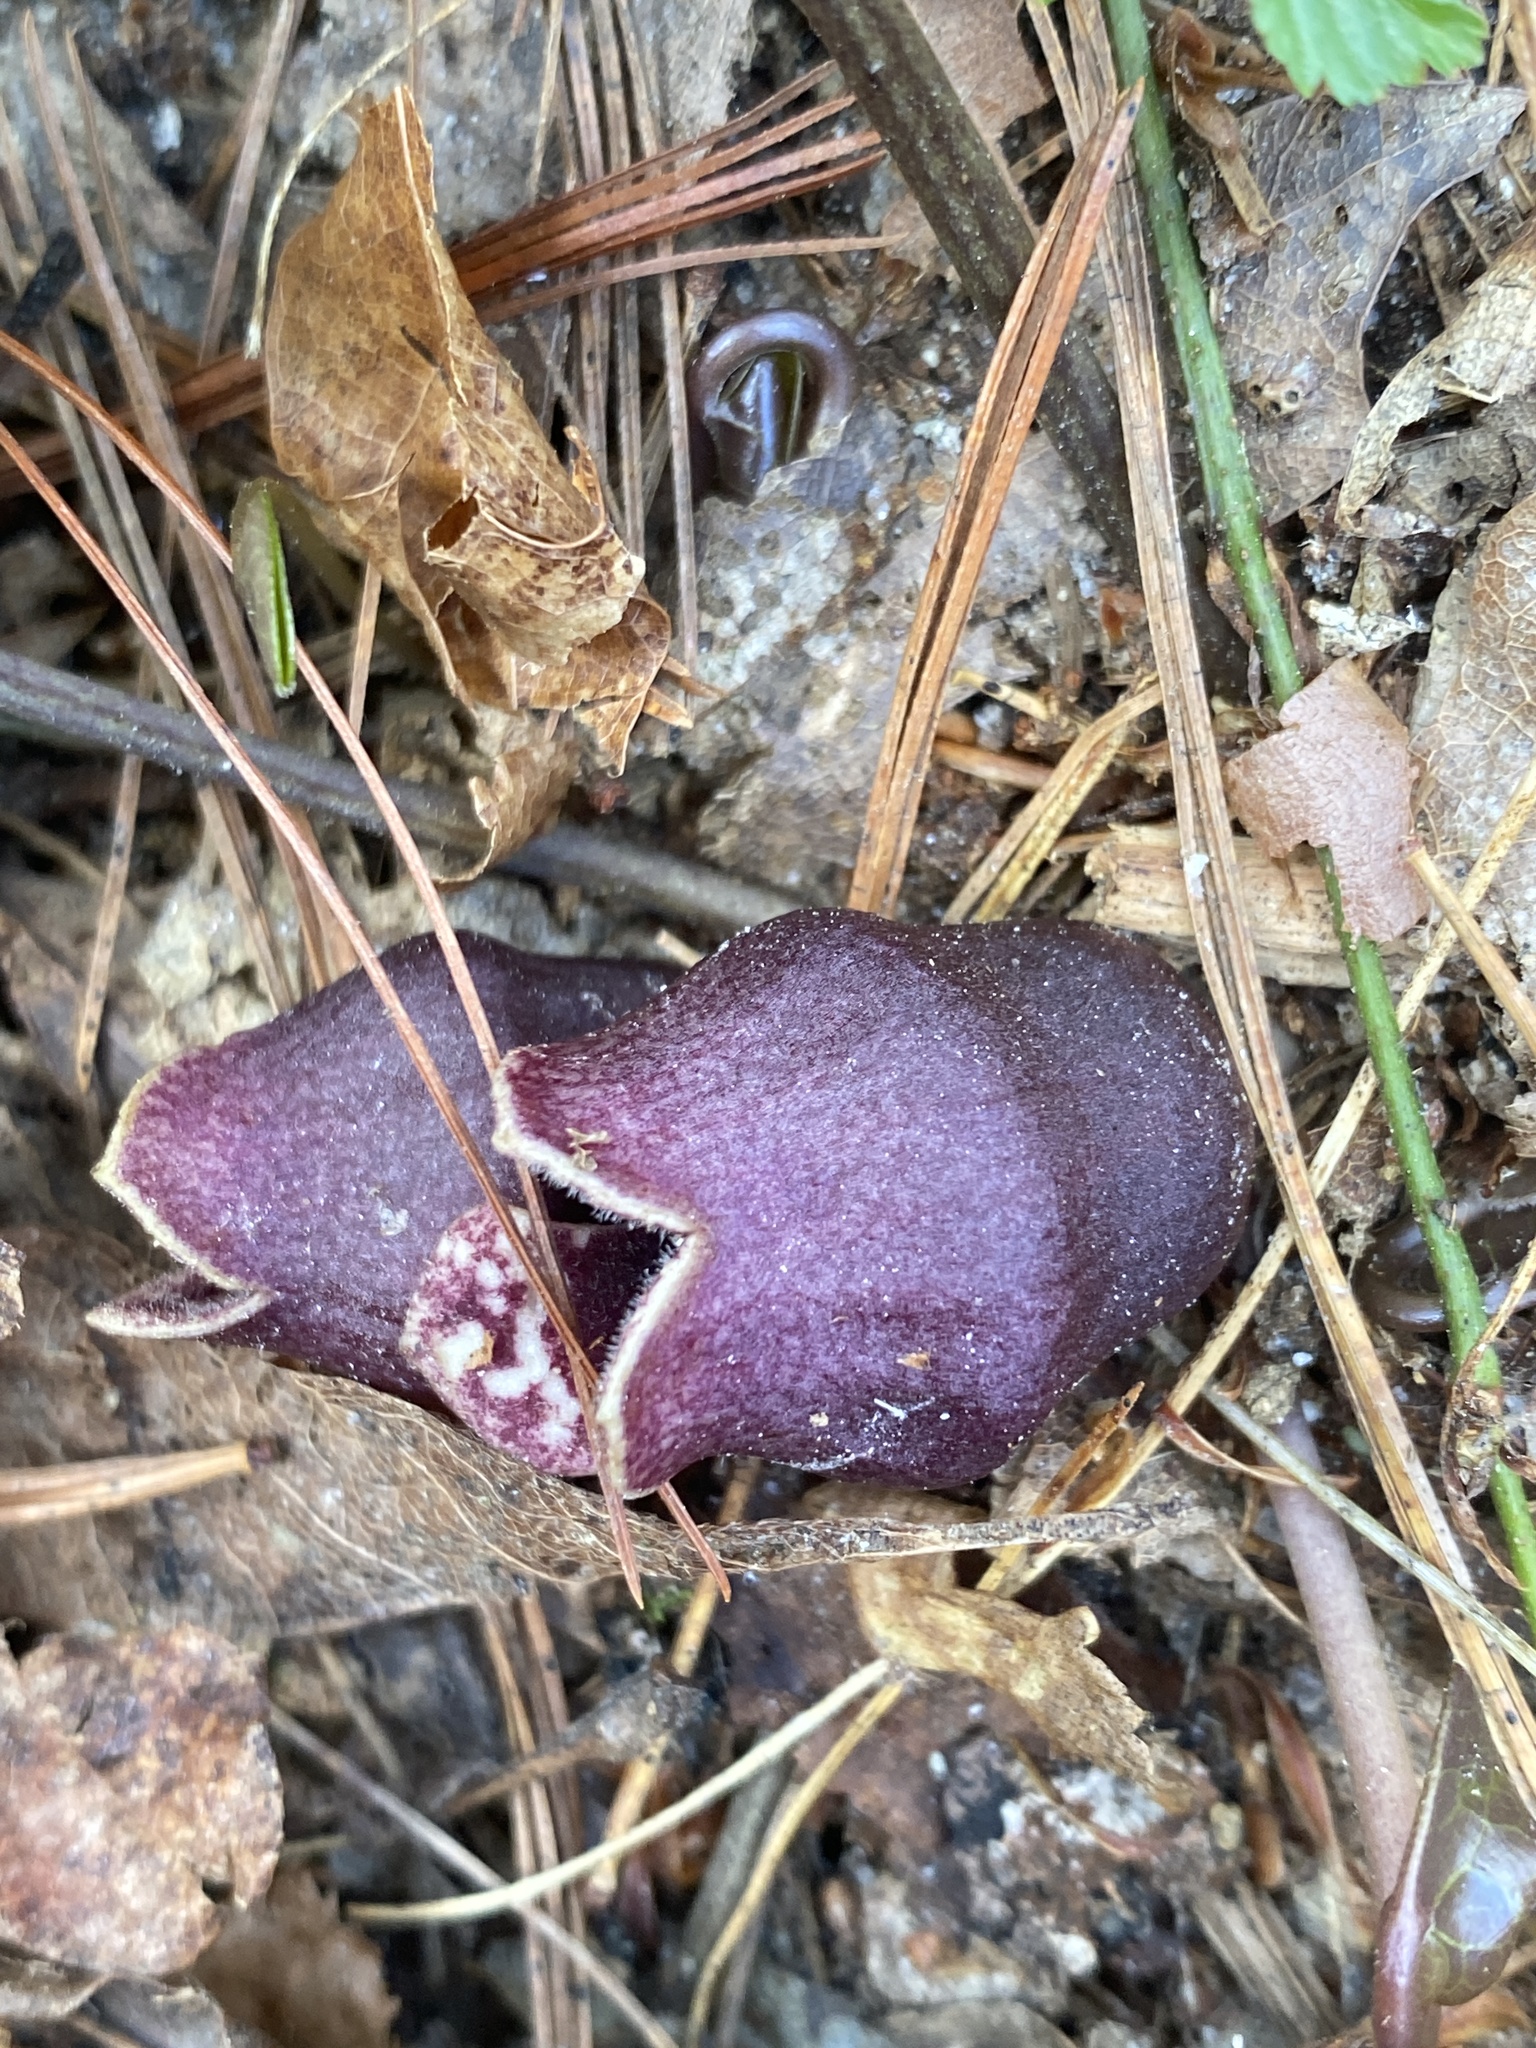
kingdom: Plantae
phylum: Tracheophyta
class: Magnoliopsida
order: Piperales
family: Aristolochiaceae
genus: Hexastylis
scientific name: Hexastylis rhombiformis
